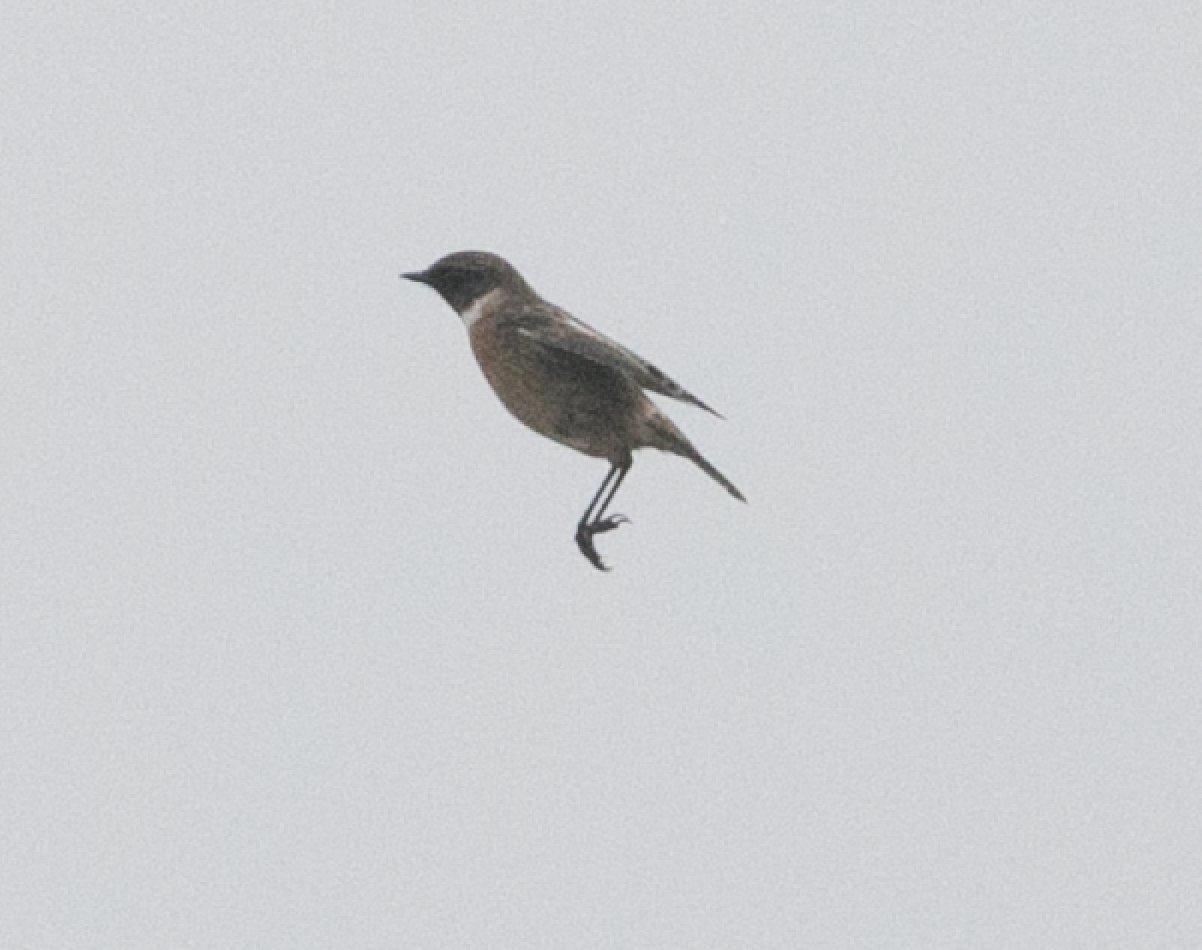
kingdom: Animalia
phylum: Chordata
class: Aves
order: Passeriformes
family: Muscicapidae
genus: Saxicola
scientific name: Saxicola rubicola
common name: European stonechat
